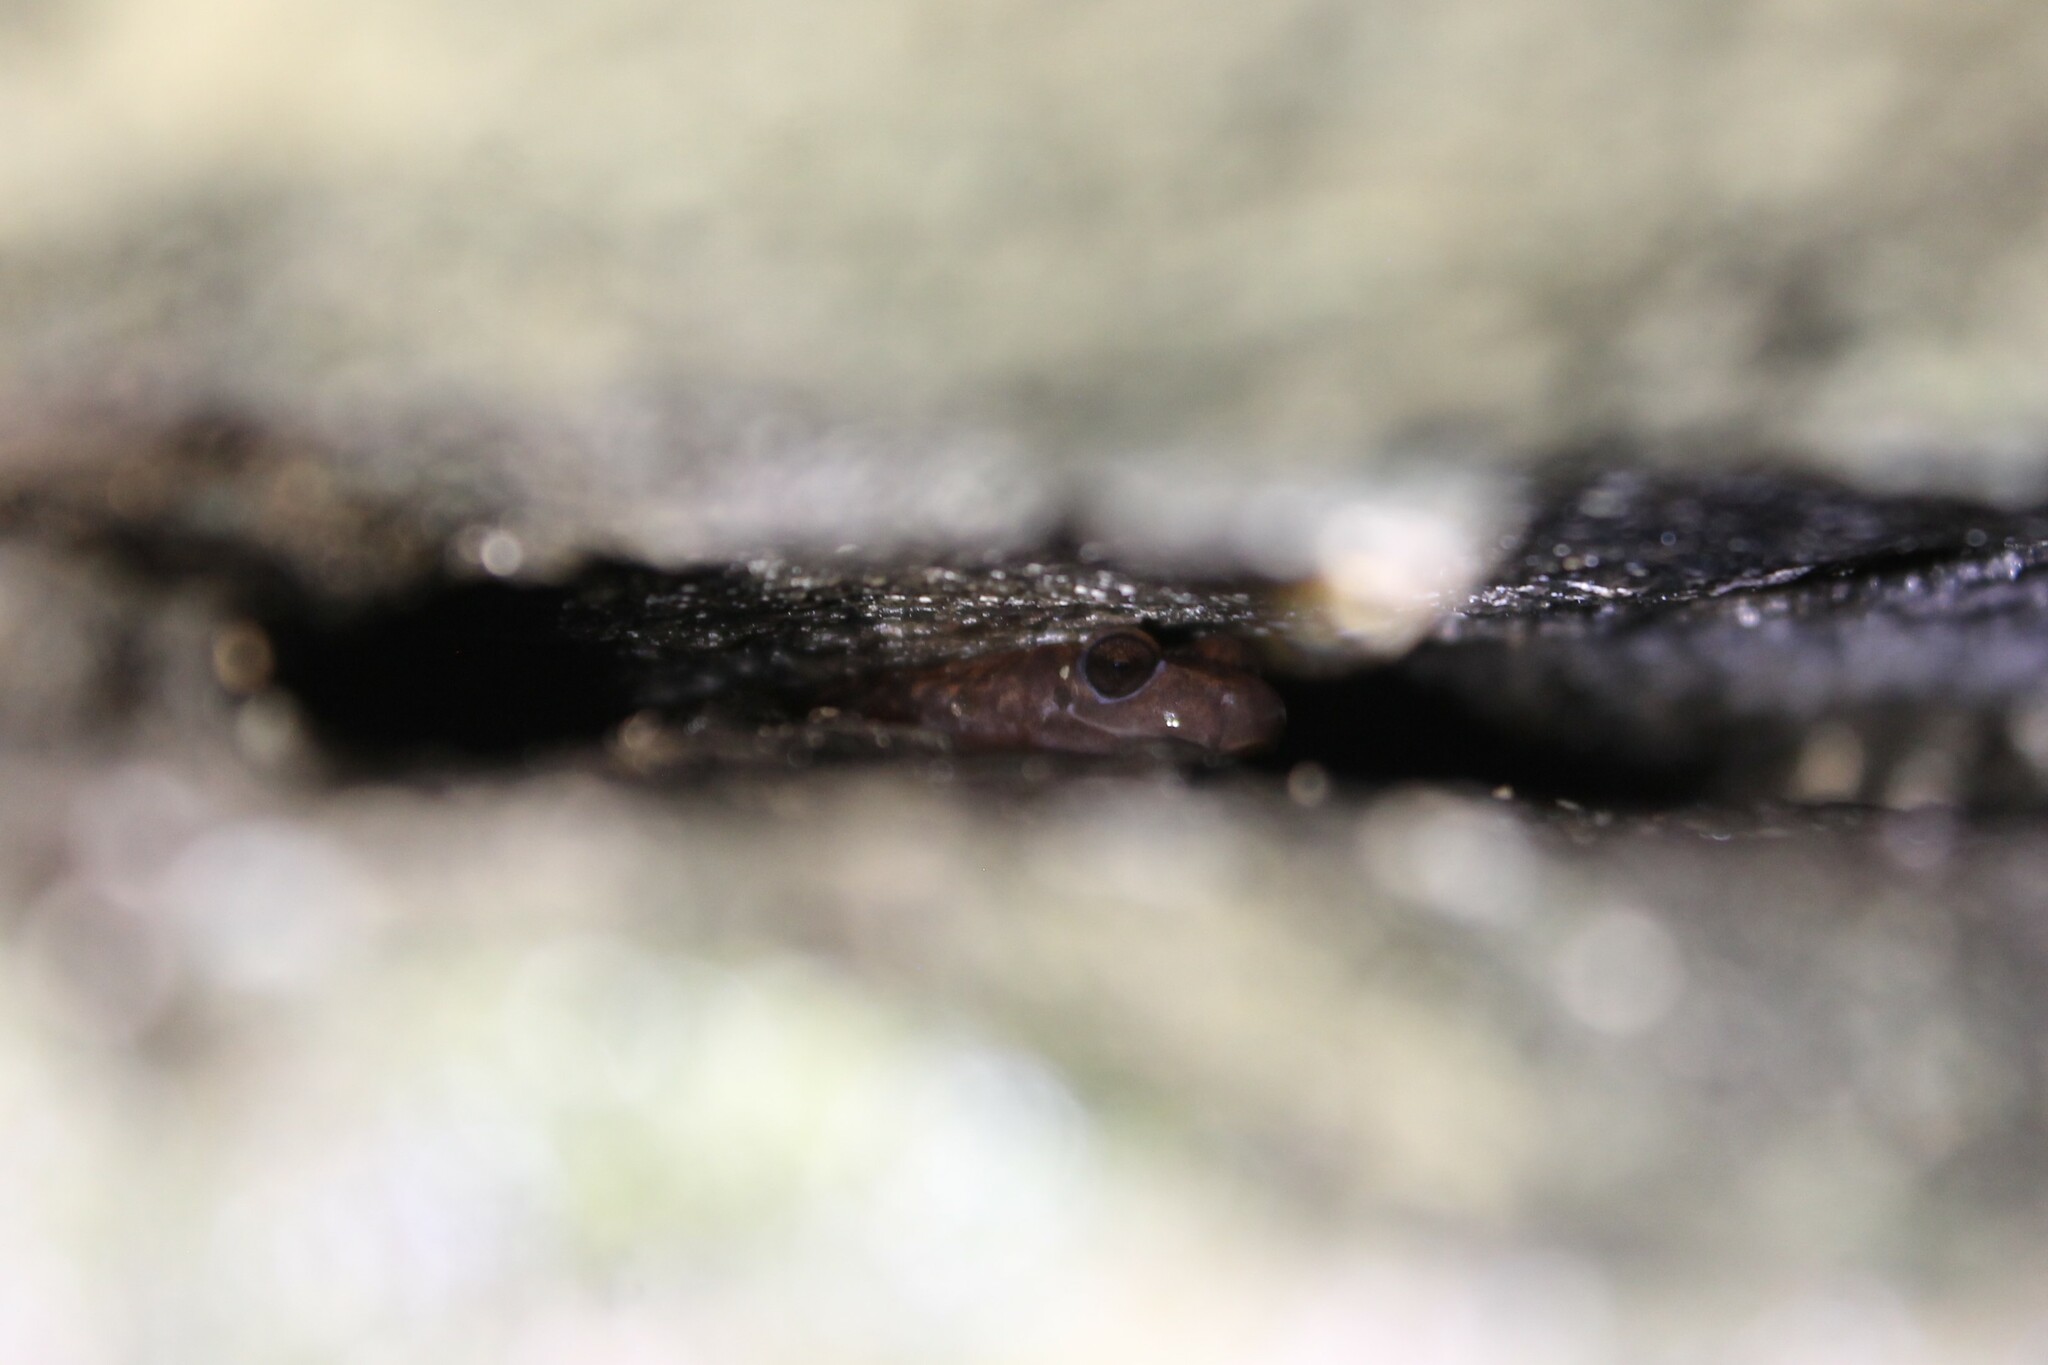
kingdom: Animalia
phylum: Chordata
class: Amphibia
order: Caudata
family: Plethodontidae
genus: Eurycea
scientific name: Eurycea lucifuga
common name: Cave salamander
